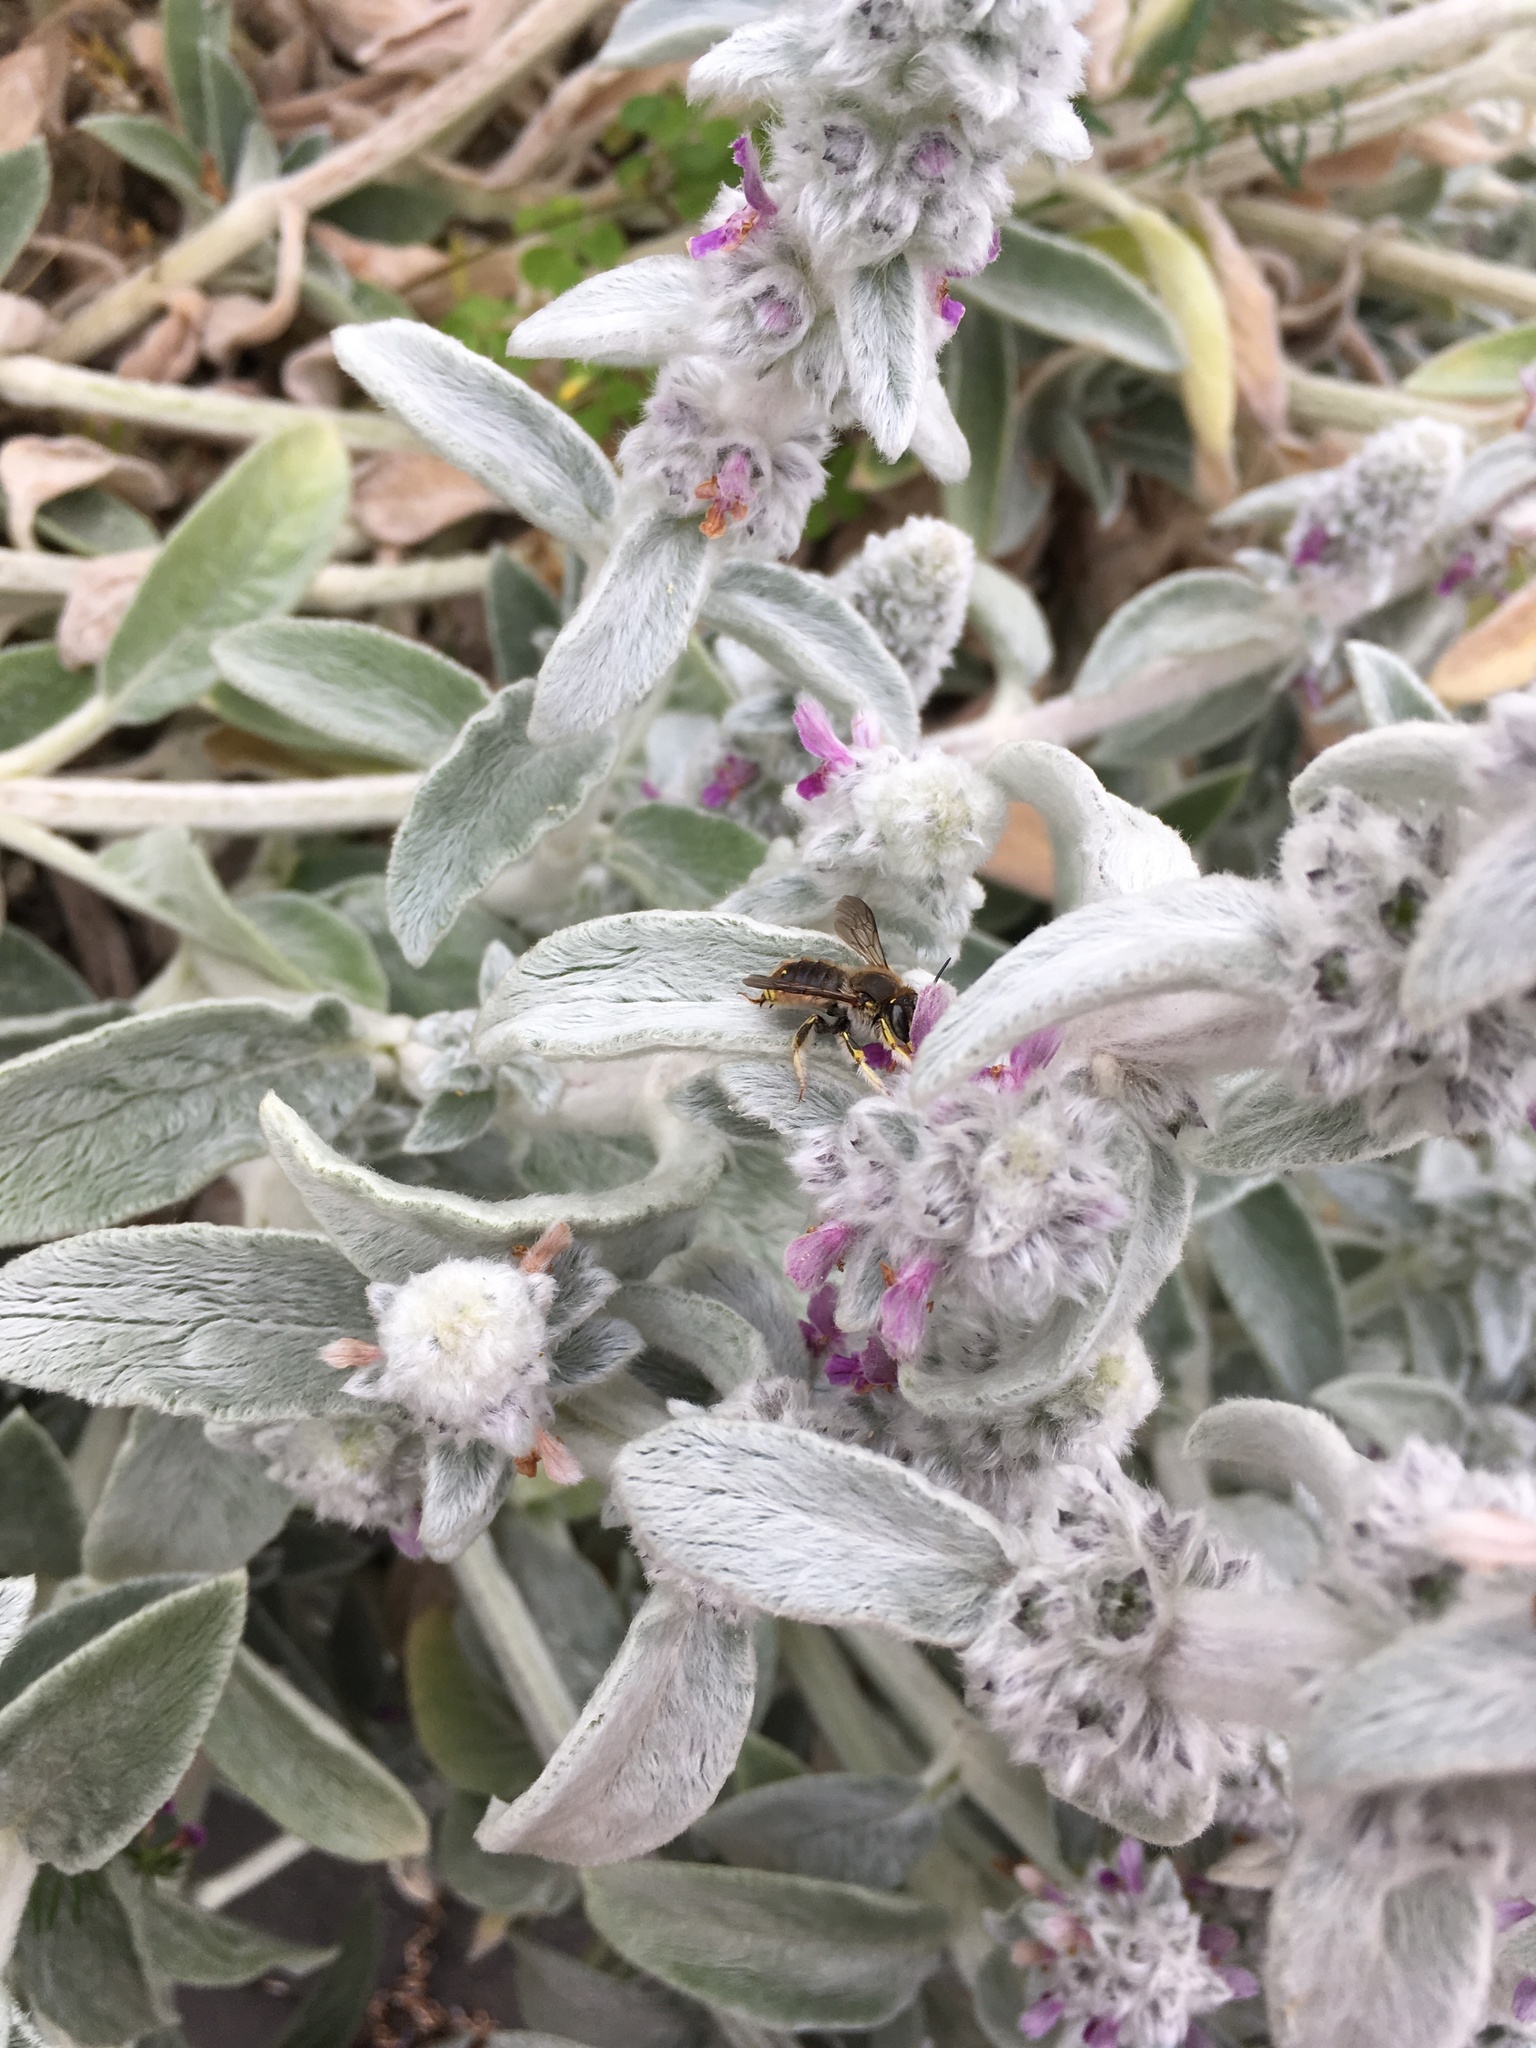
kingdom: Animalia
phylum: Arthropoda
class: Insecta
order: Hymenoptera
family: Megachilidae
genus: Anthidium
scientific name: Anthidium manicatum
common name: Wool carder bee
